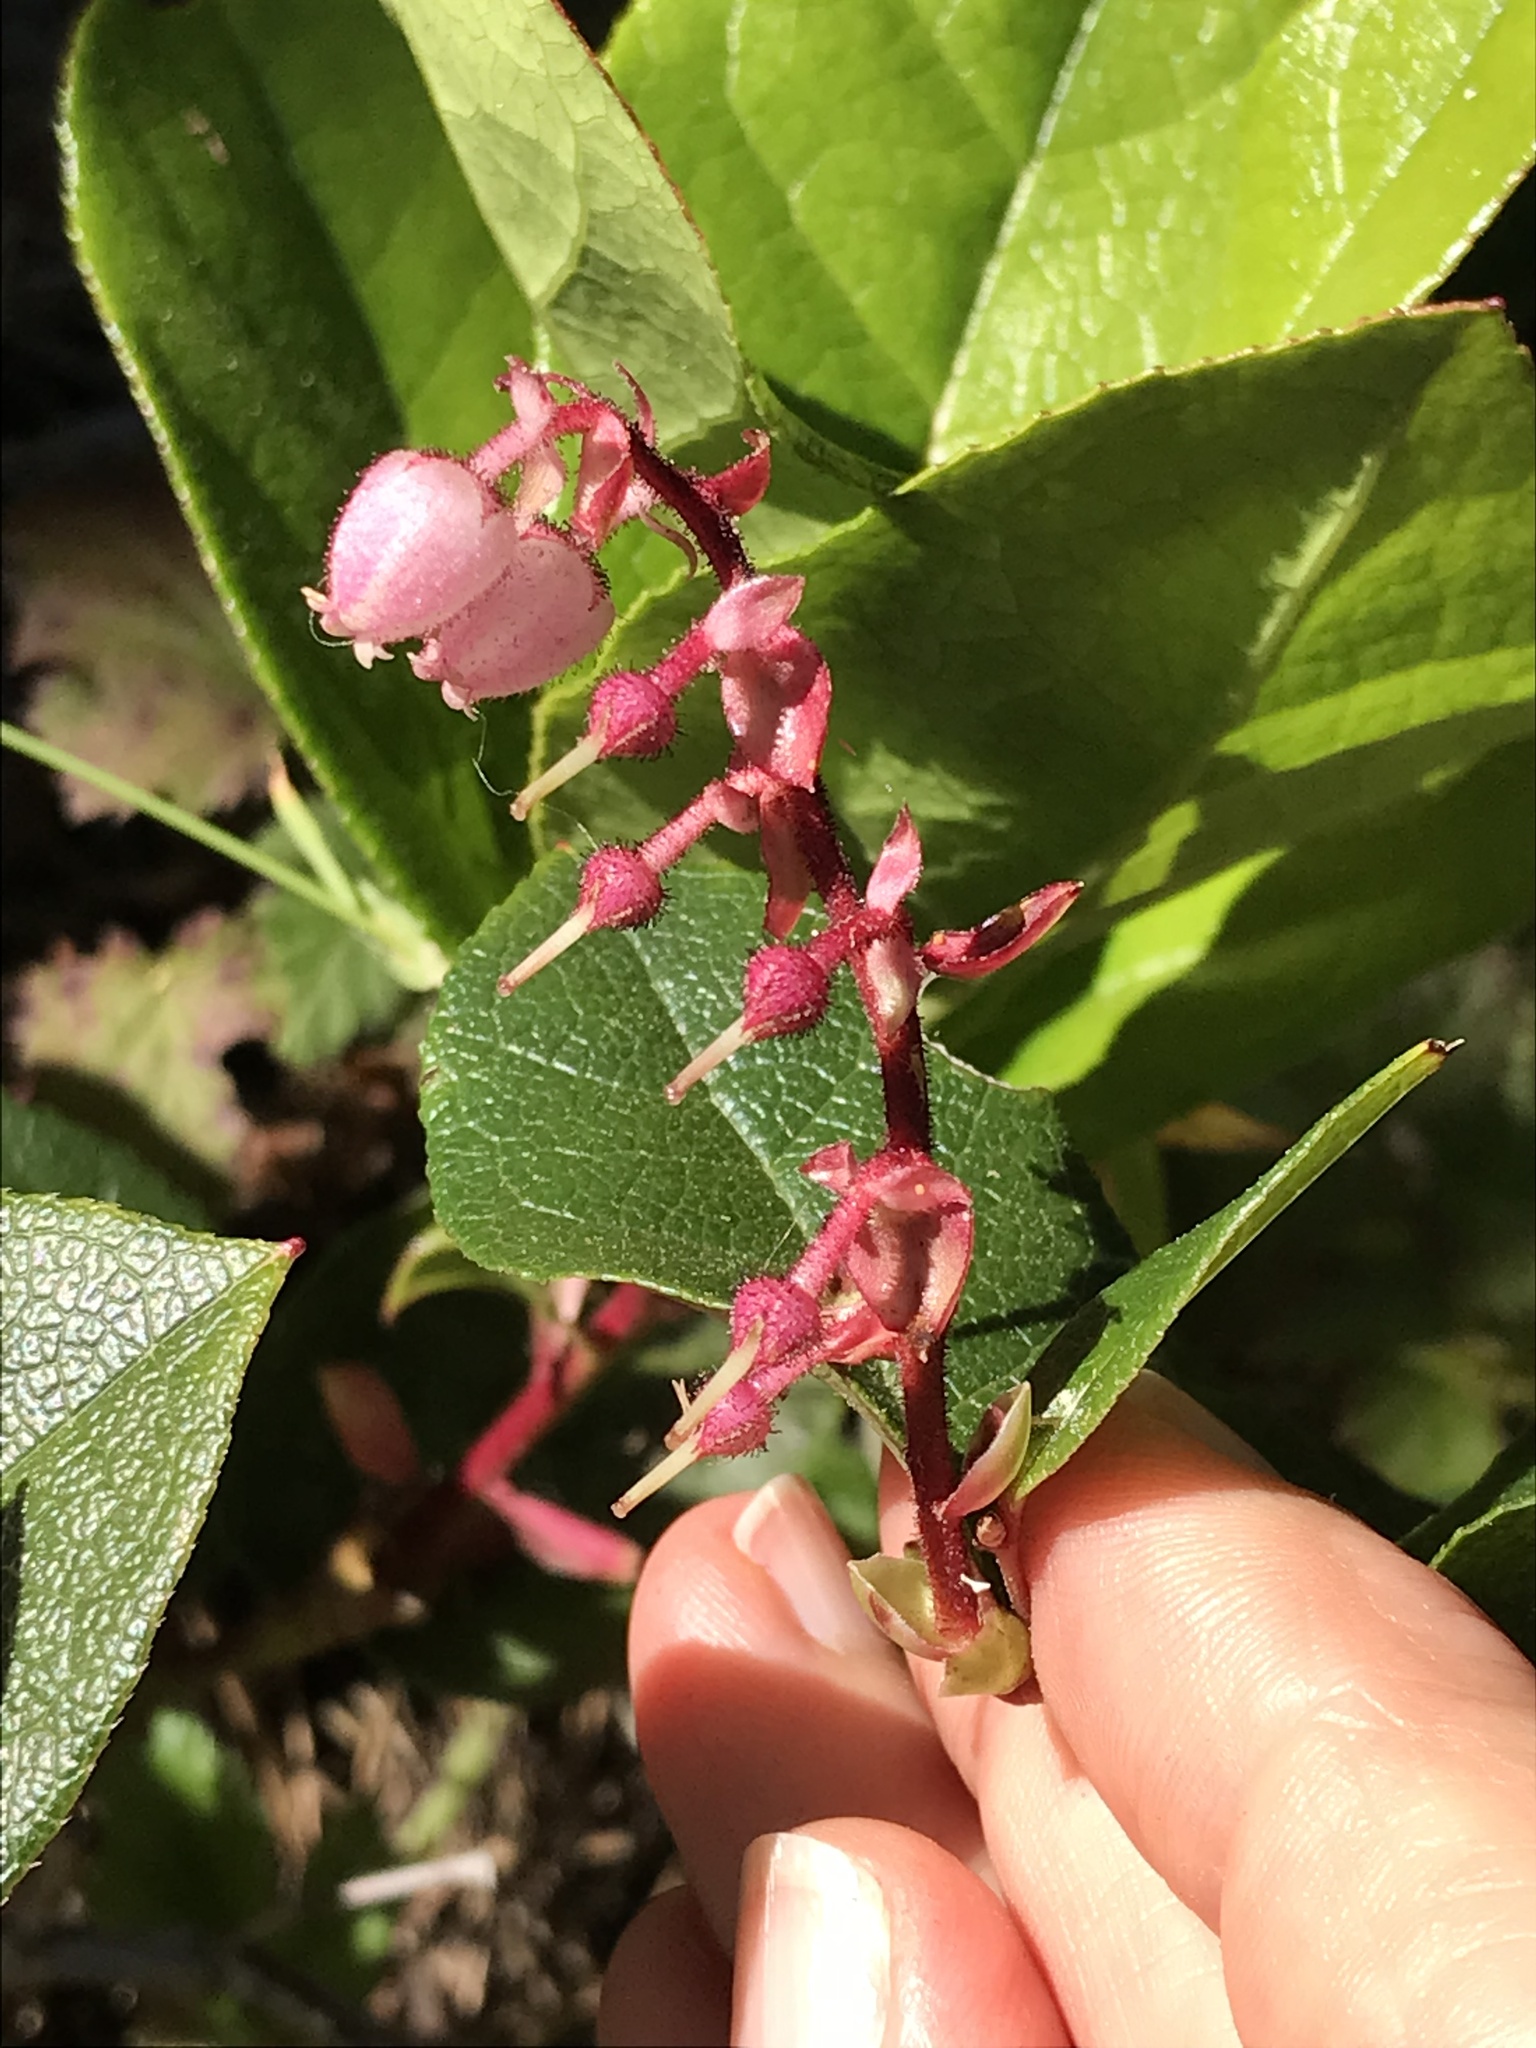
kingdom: Plantae
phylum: Tracheophyta
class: Magnoliopsida
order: Ericales
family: Ericaceae
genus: Gaultheria
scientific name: Gaultheria shallon
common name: Shallon
